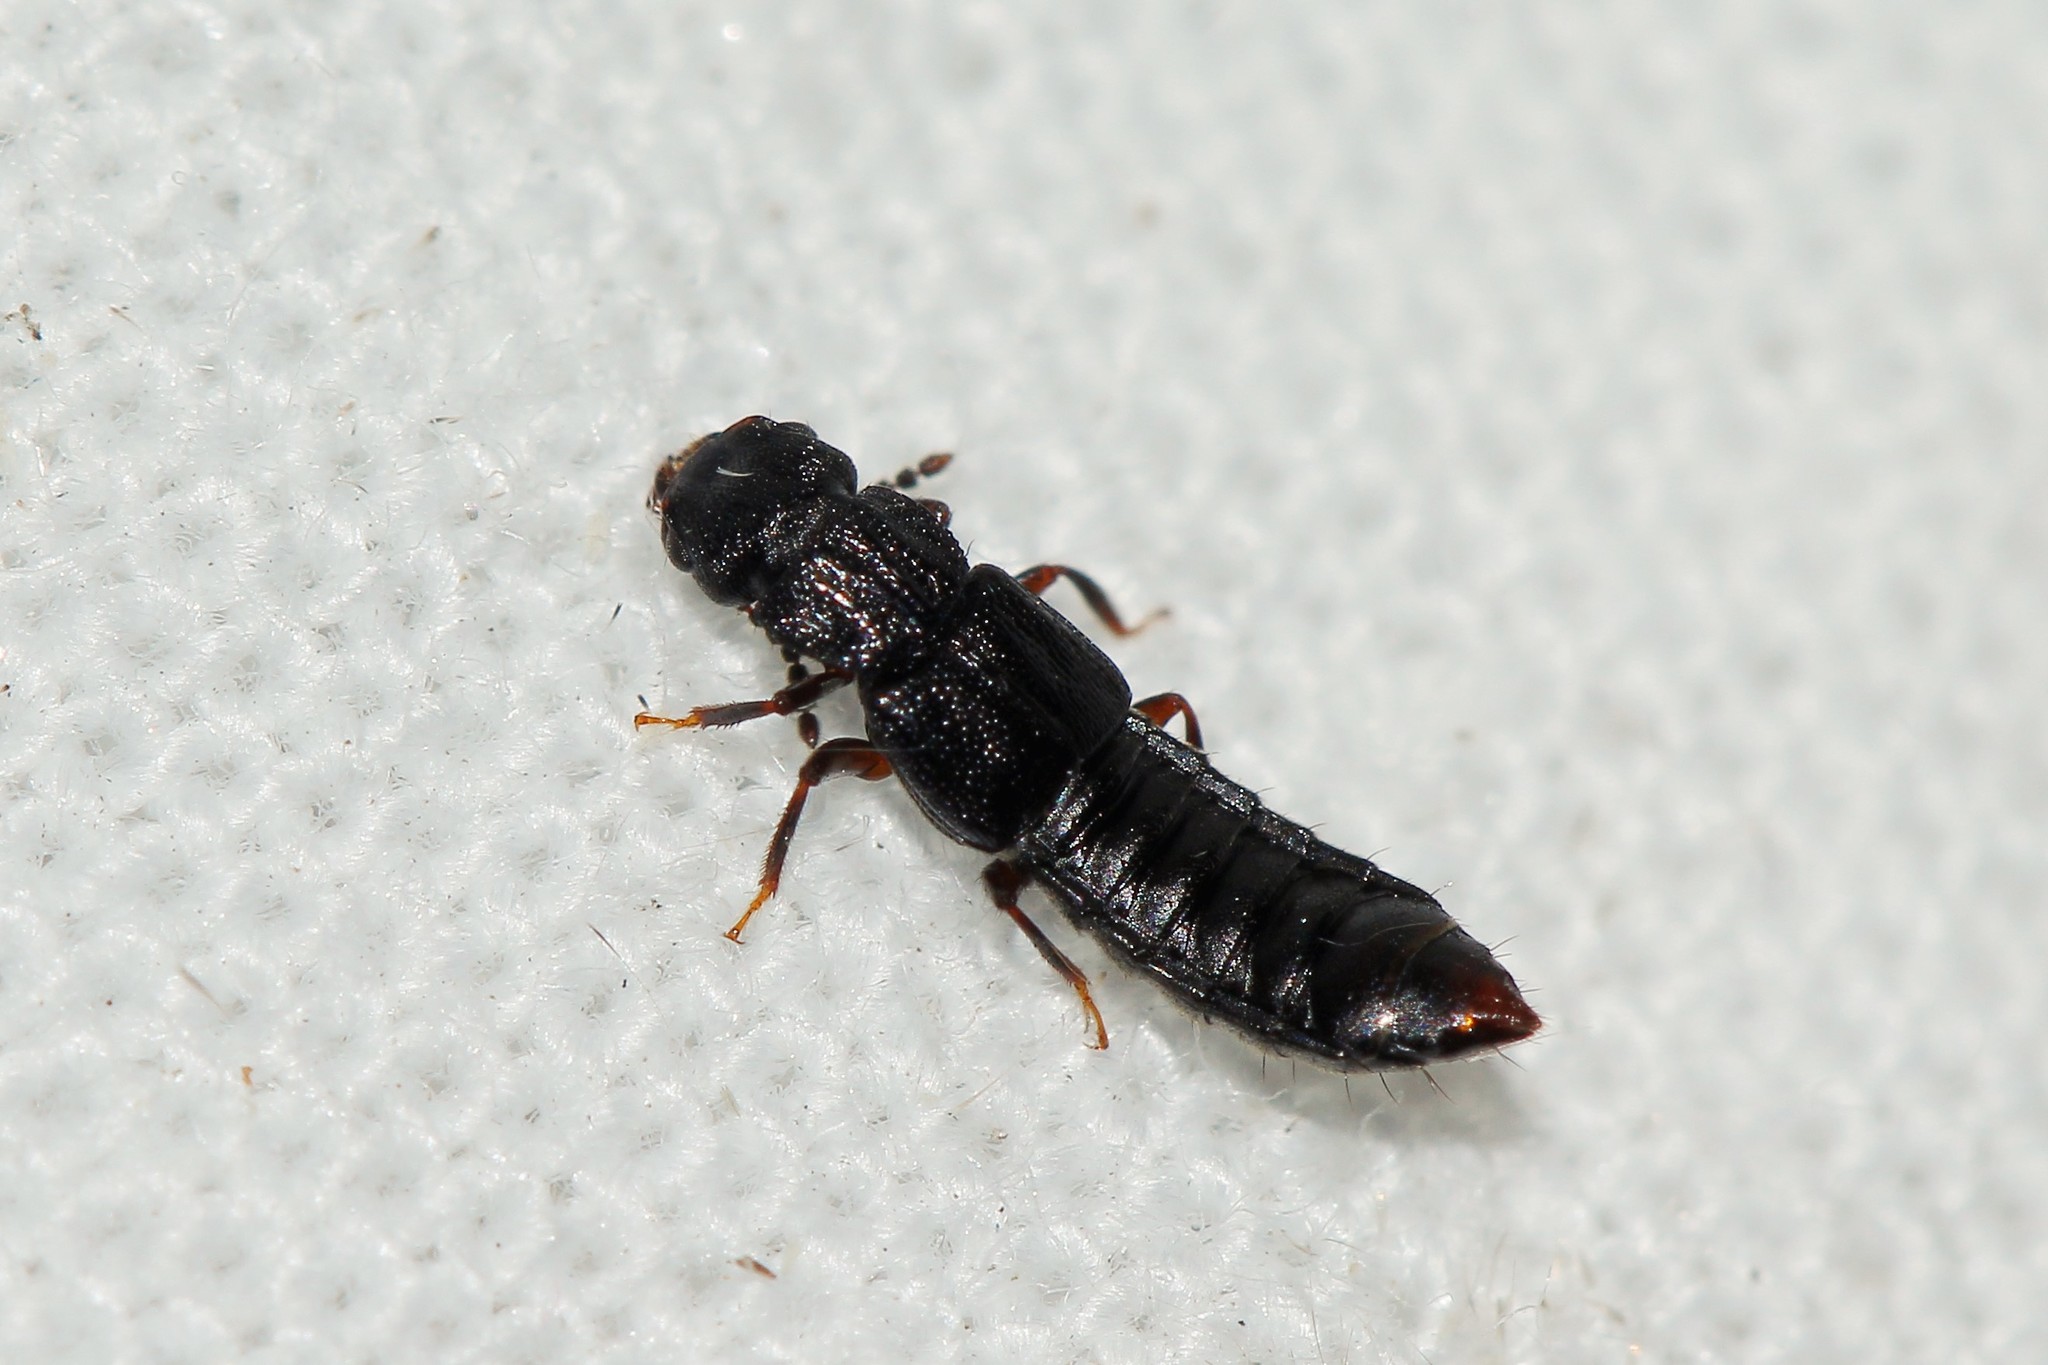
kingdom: Animalia
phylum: Arthropoda
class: Insecta
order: Coleoptera
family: Staphylinidae
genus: Anotylus
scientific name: Anotylus rugosus
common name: Rove beetle
